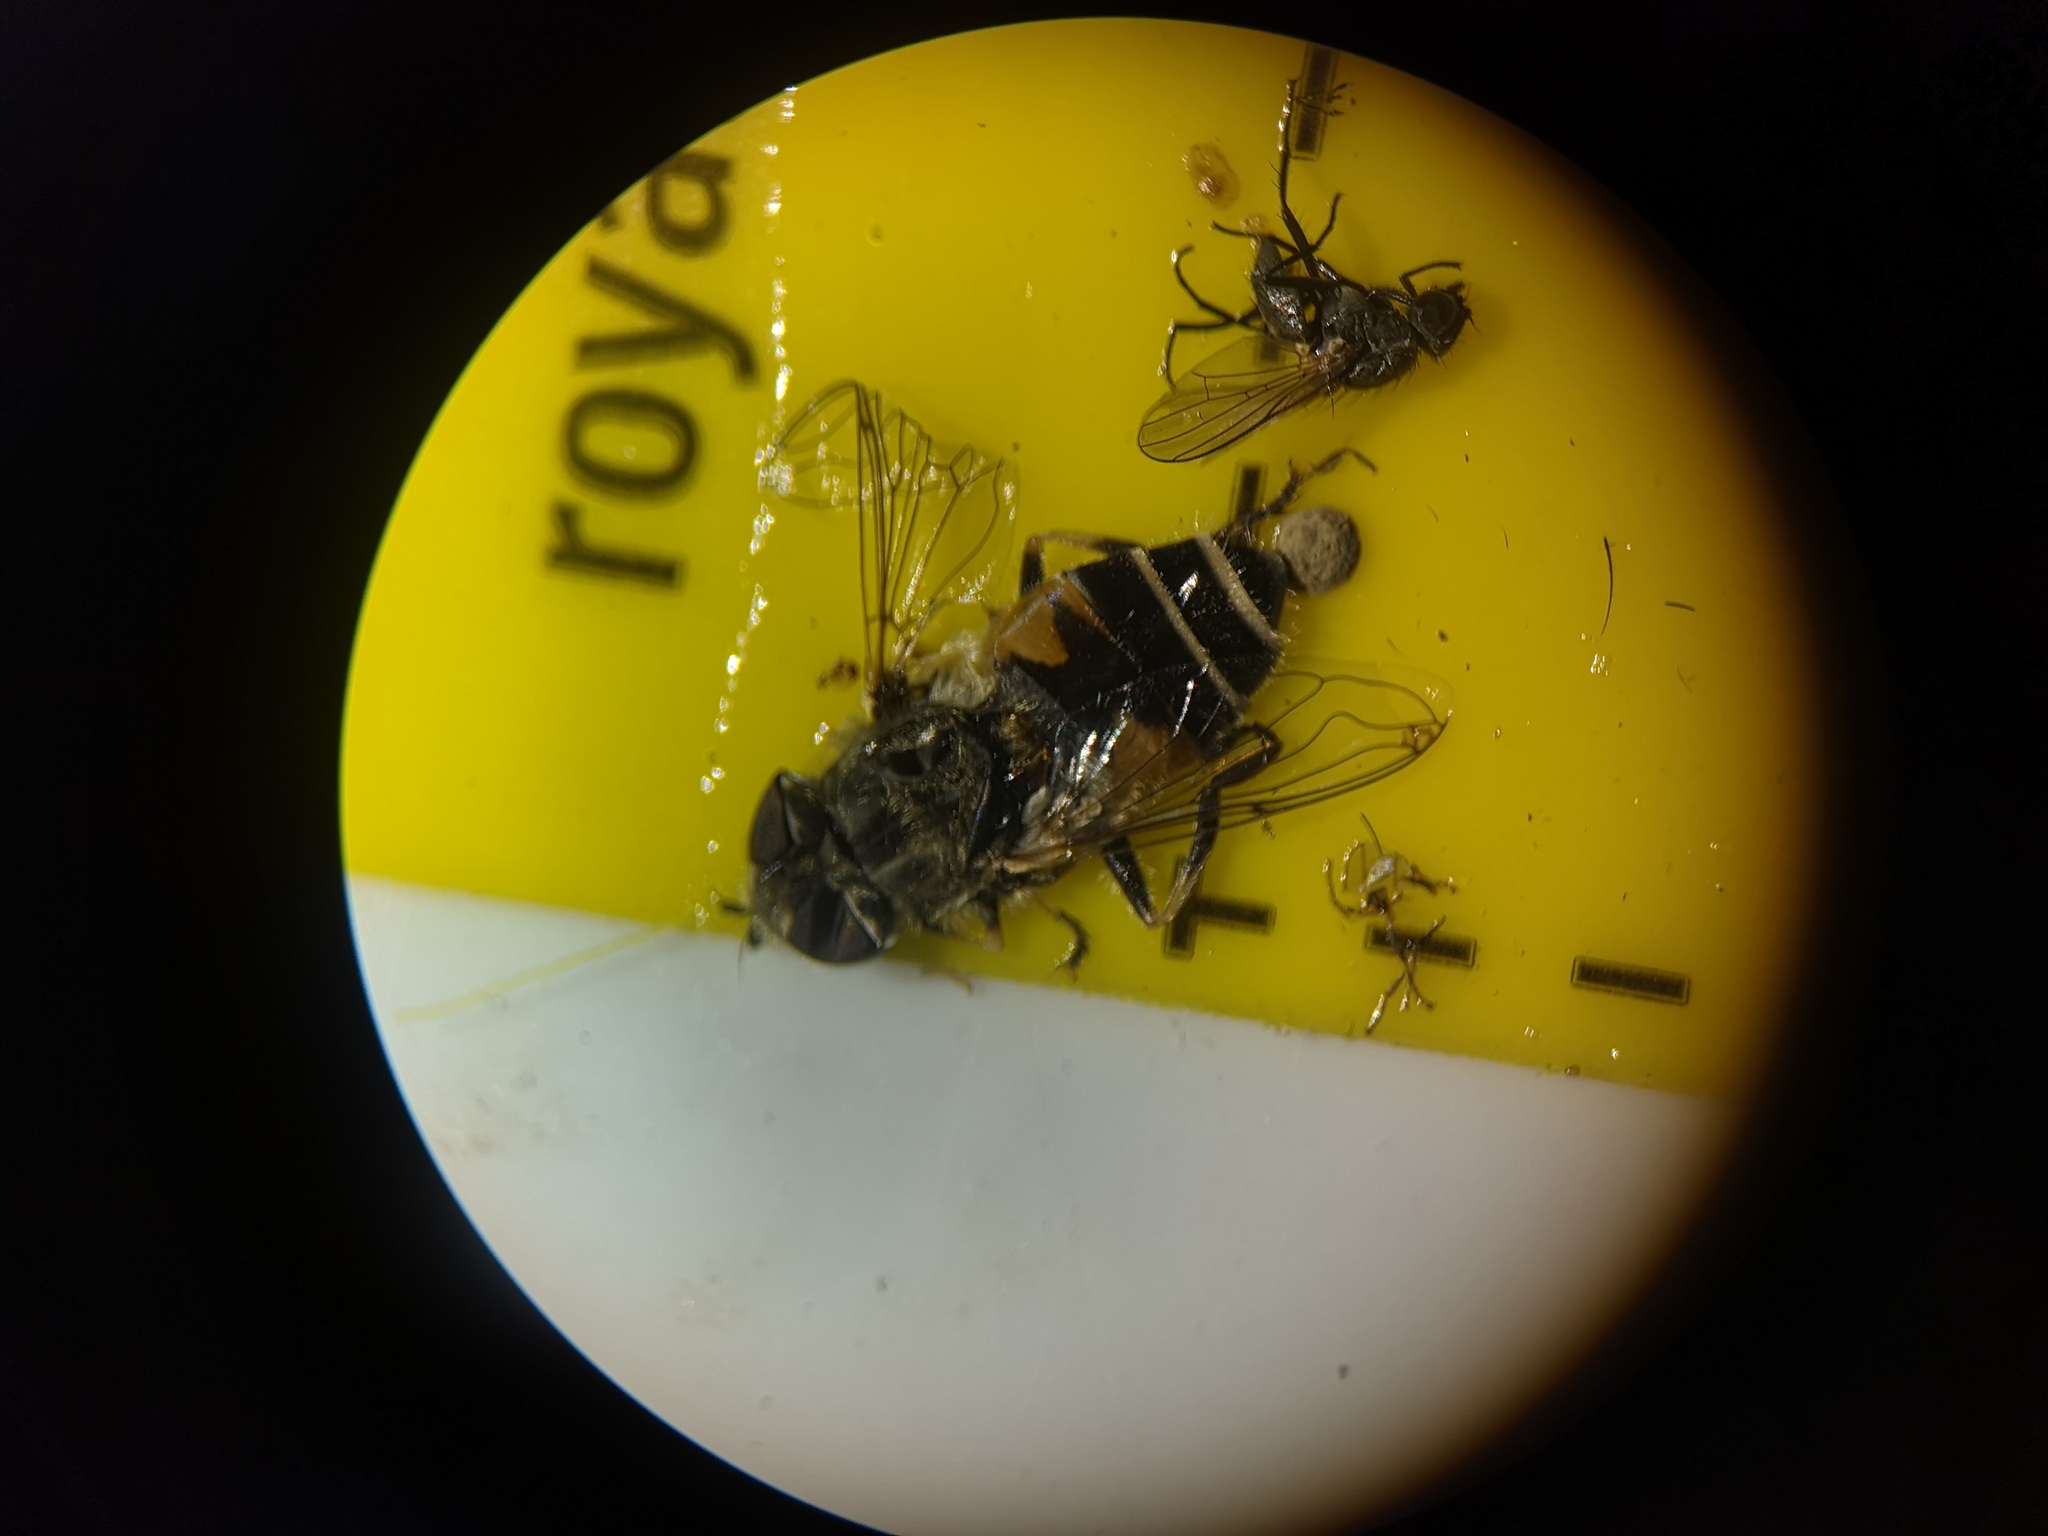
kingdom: Animalia
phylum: Arthropoda
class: Insecta
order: Diptera
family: Syrphidae
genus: Eristalis
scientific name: Eristalis nemorum
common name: Orange-spined drone fly
